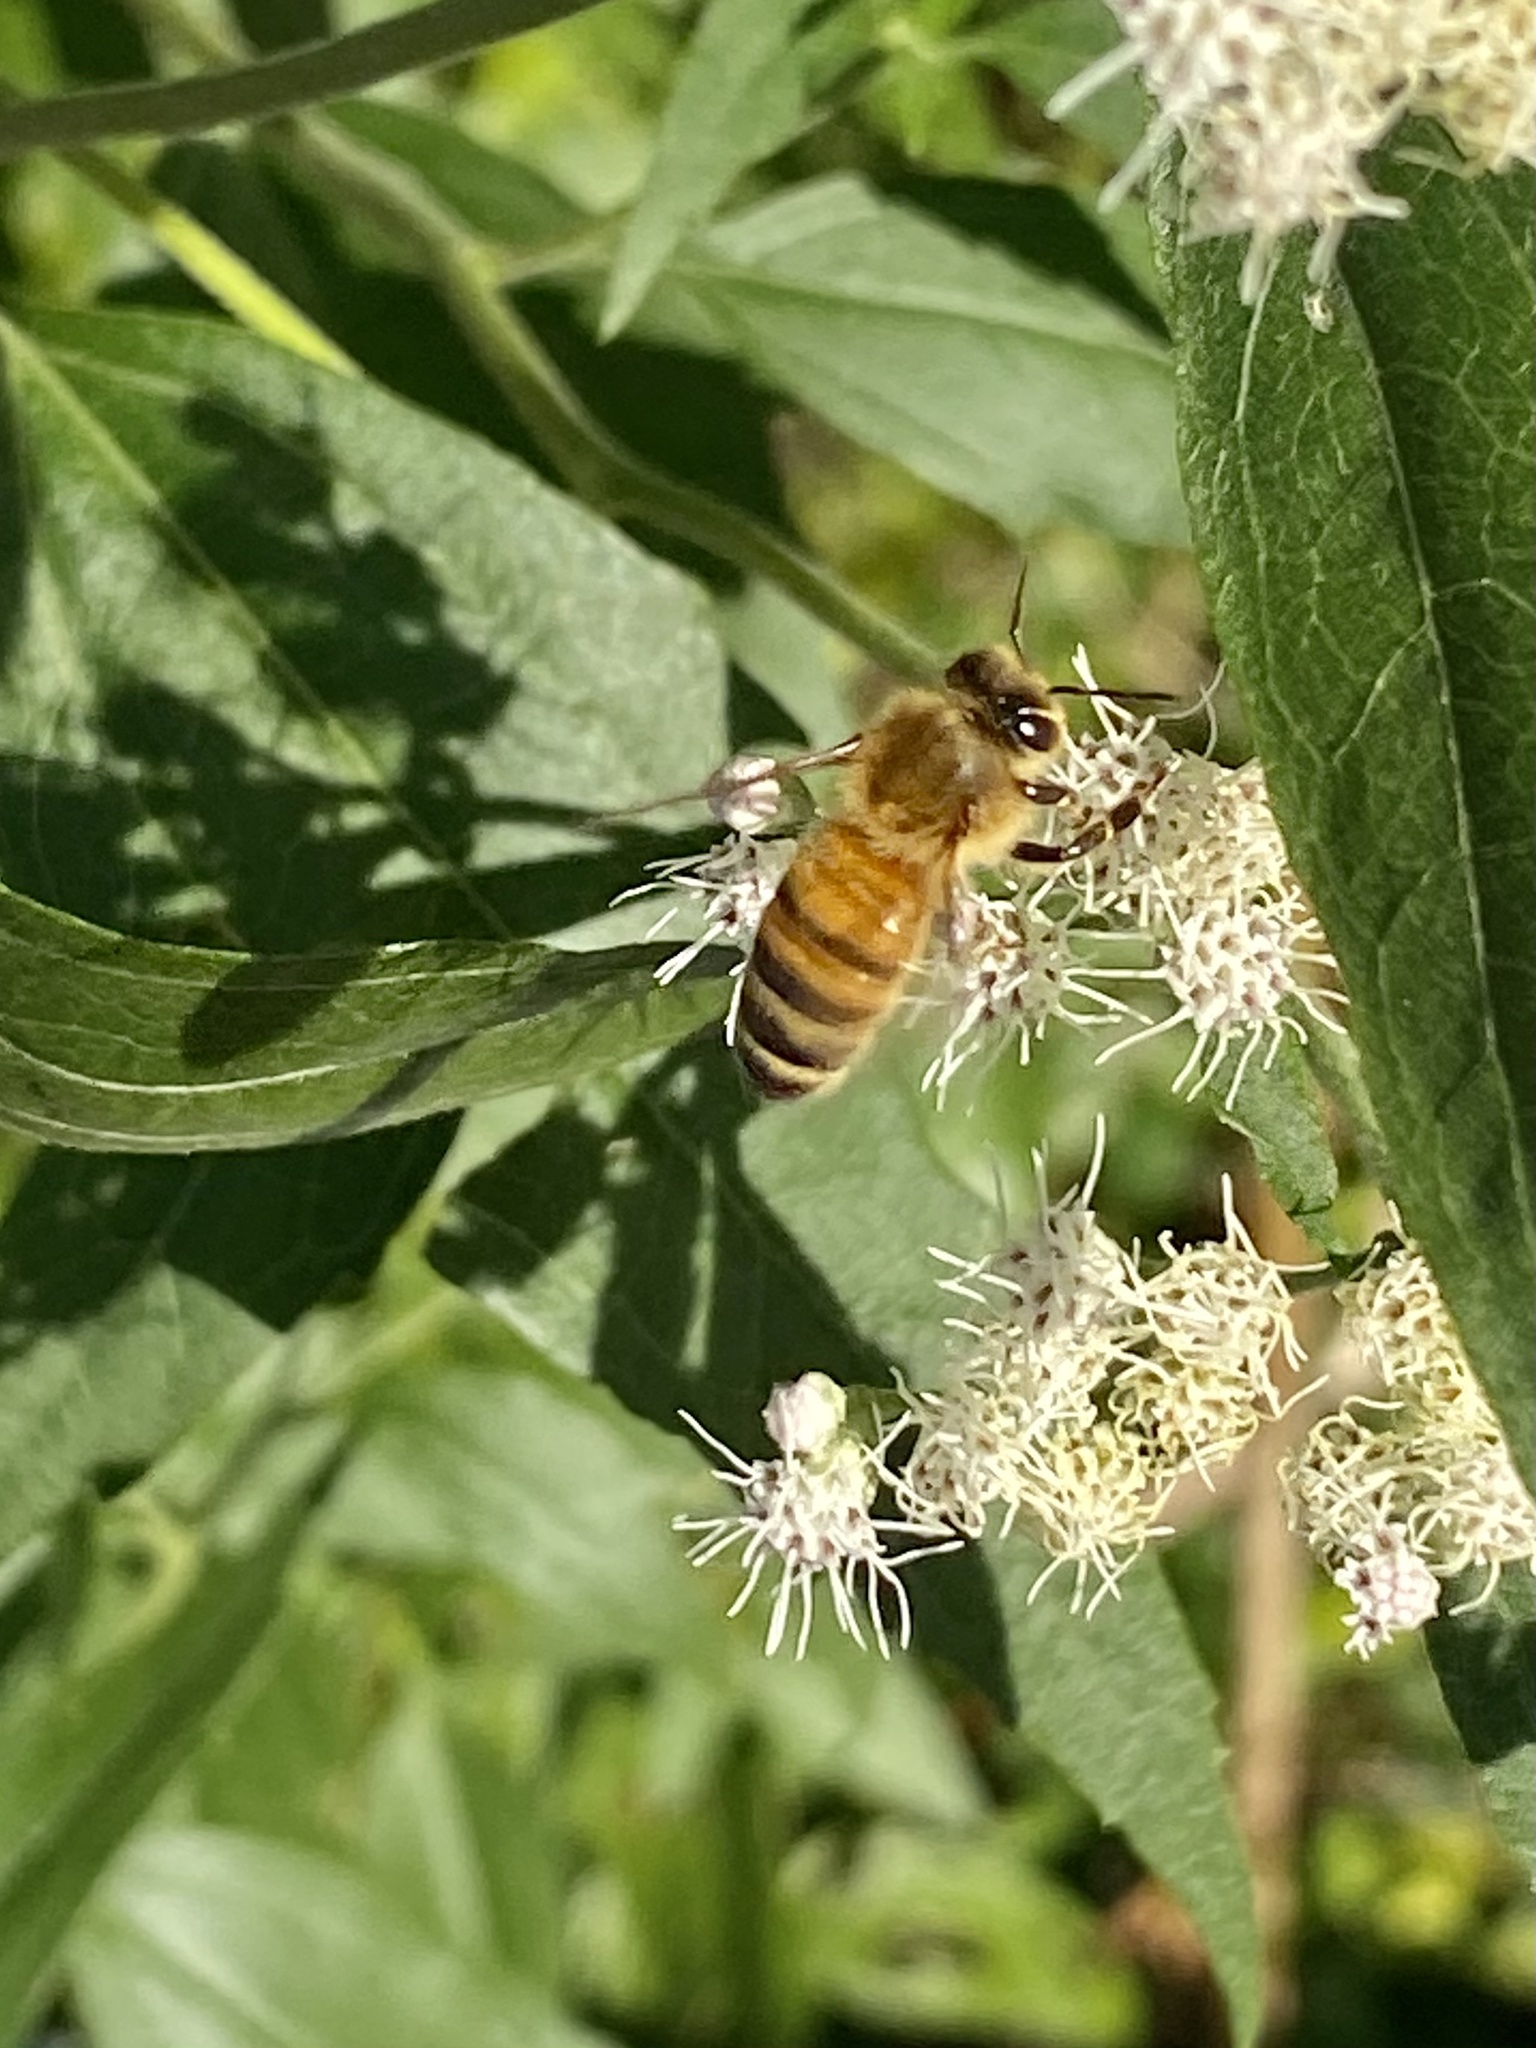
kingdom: Animalia
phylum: Arthropoda
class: Insecta
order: Hymenoptera
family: Apidae
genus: Apis
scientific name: Apis mellifera
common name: Honey bee
